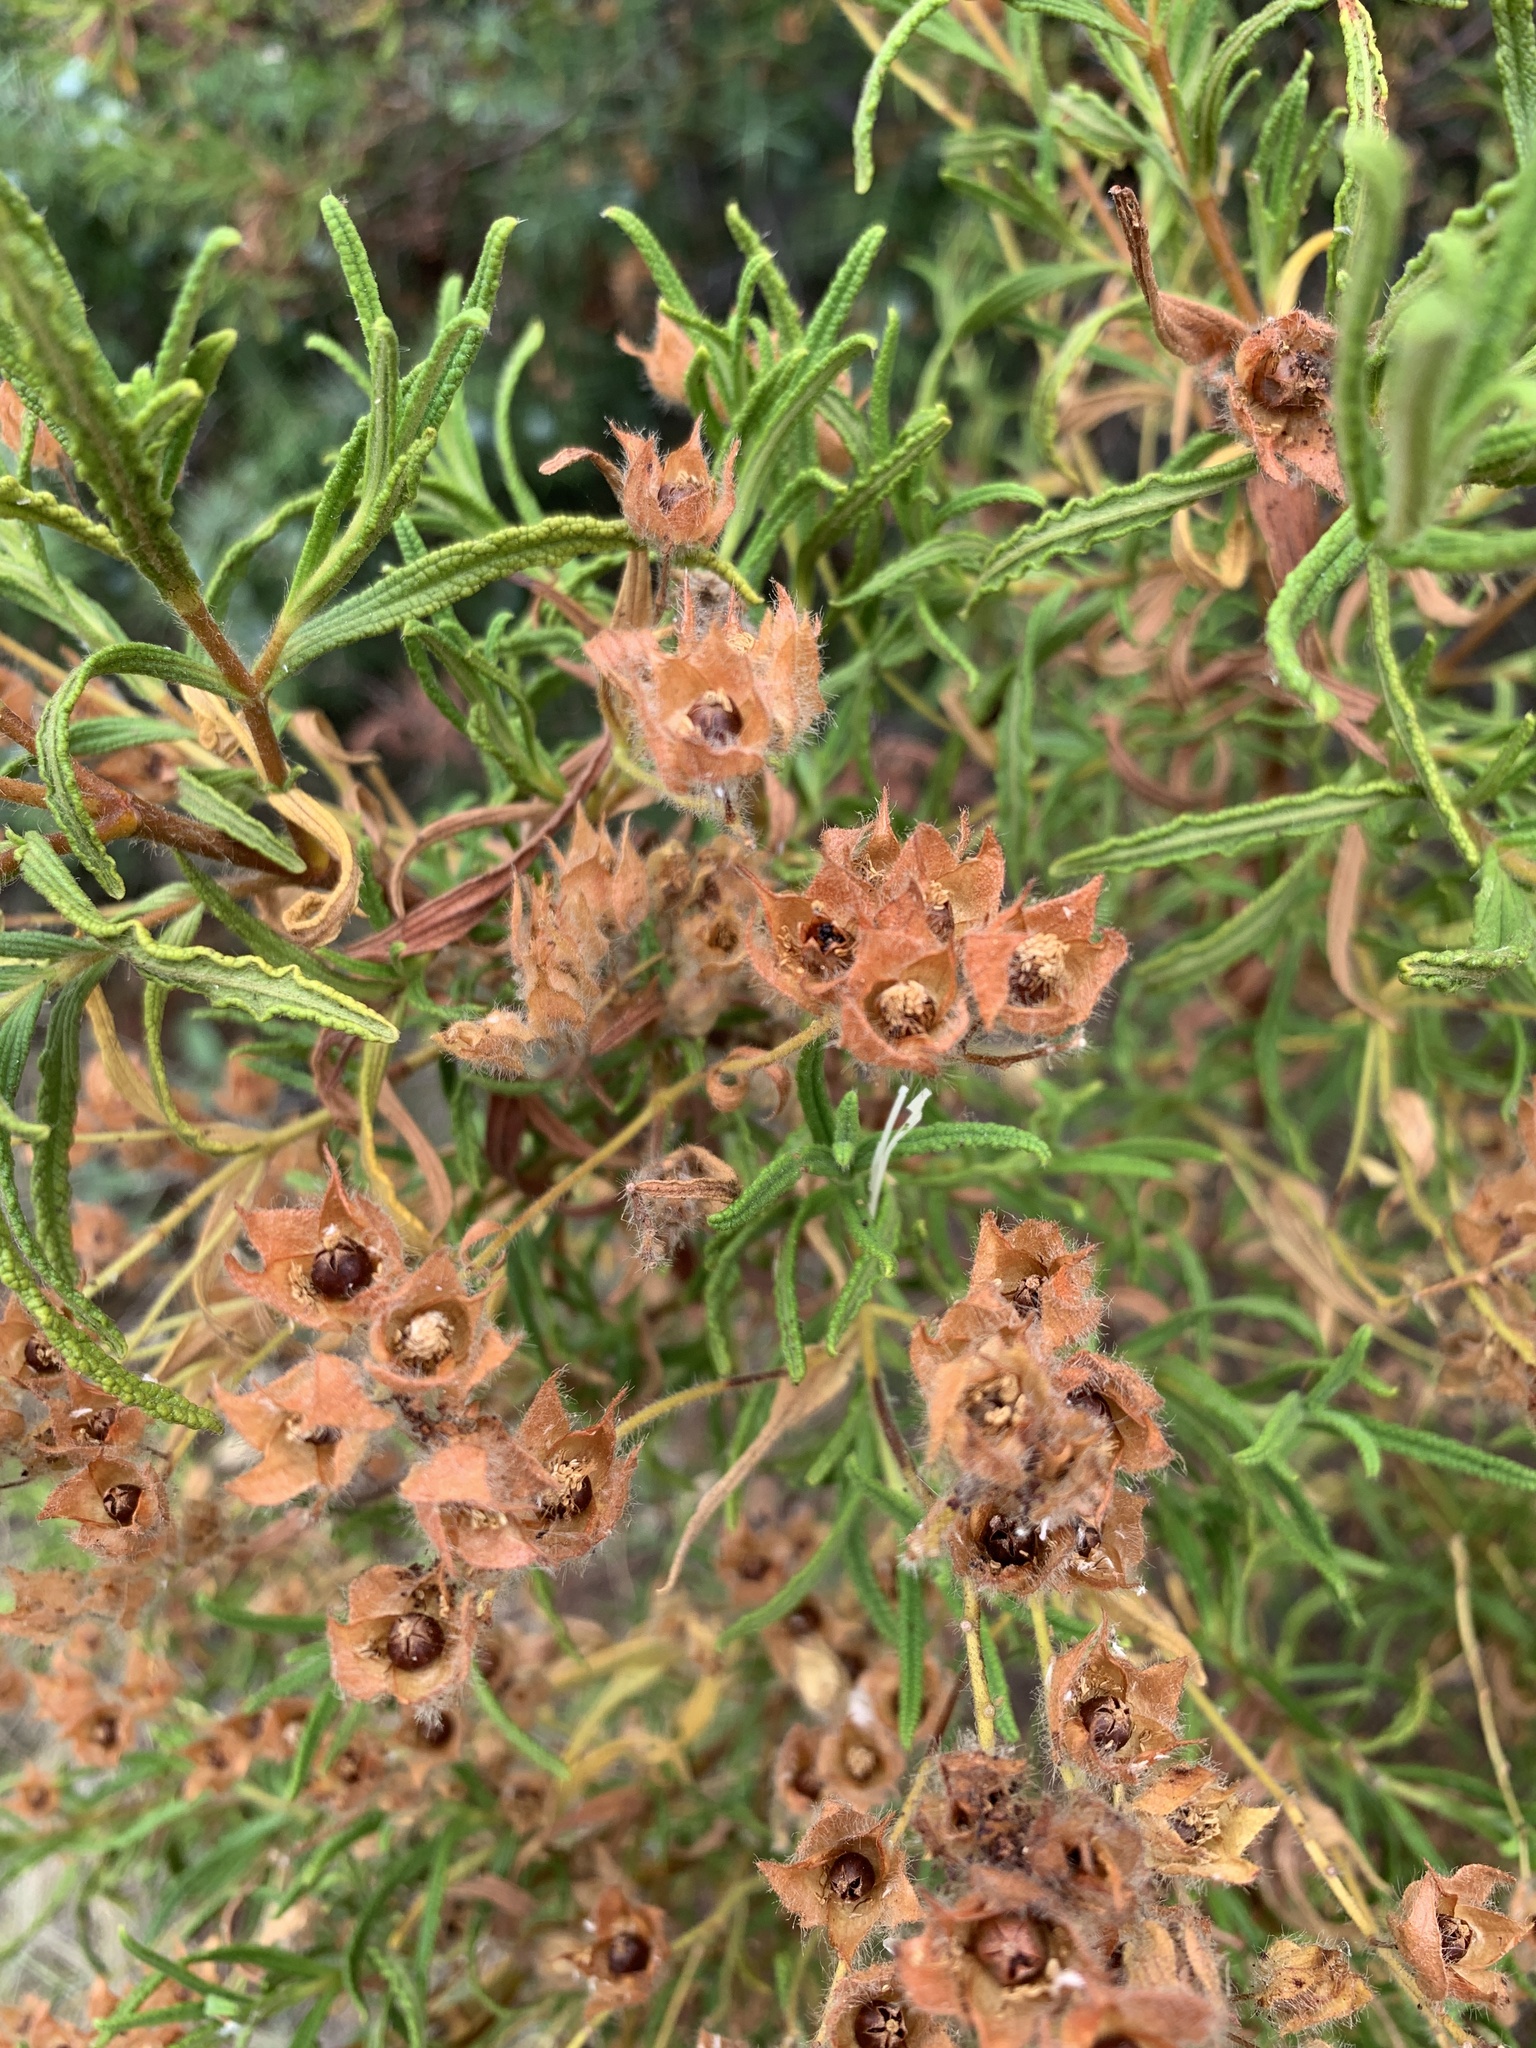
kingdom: Plantae
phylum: Tracheophyta
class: Magnoliopsida
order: Malvales
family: Cistaceae
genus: Cistus
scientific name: Cistus monspeliensis
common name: Montpelier cistus
